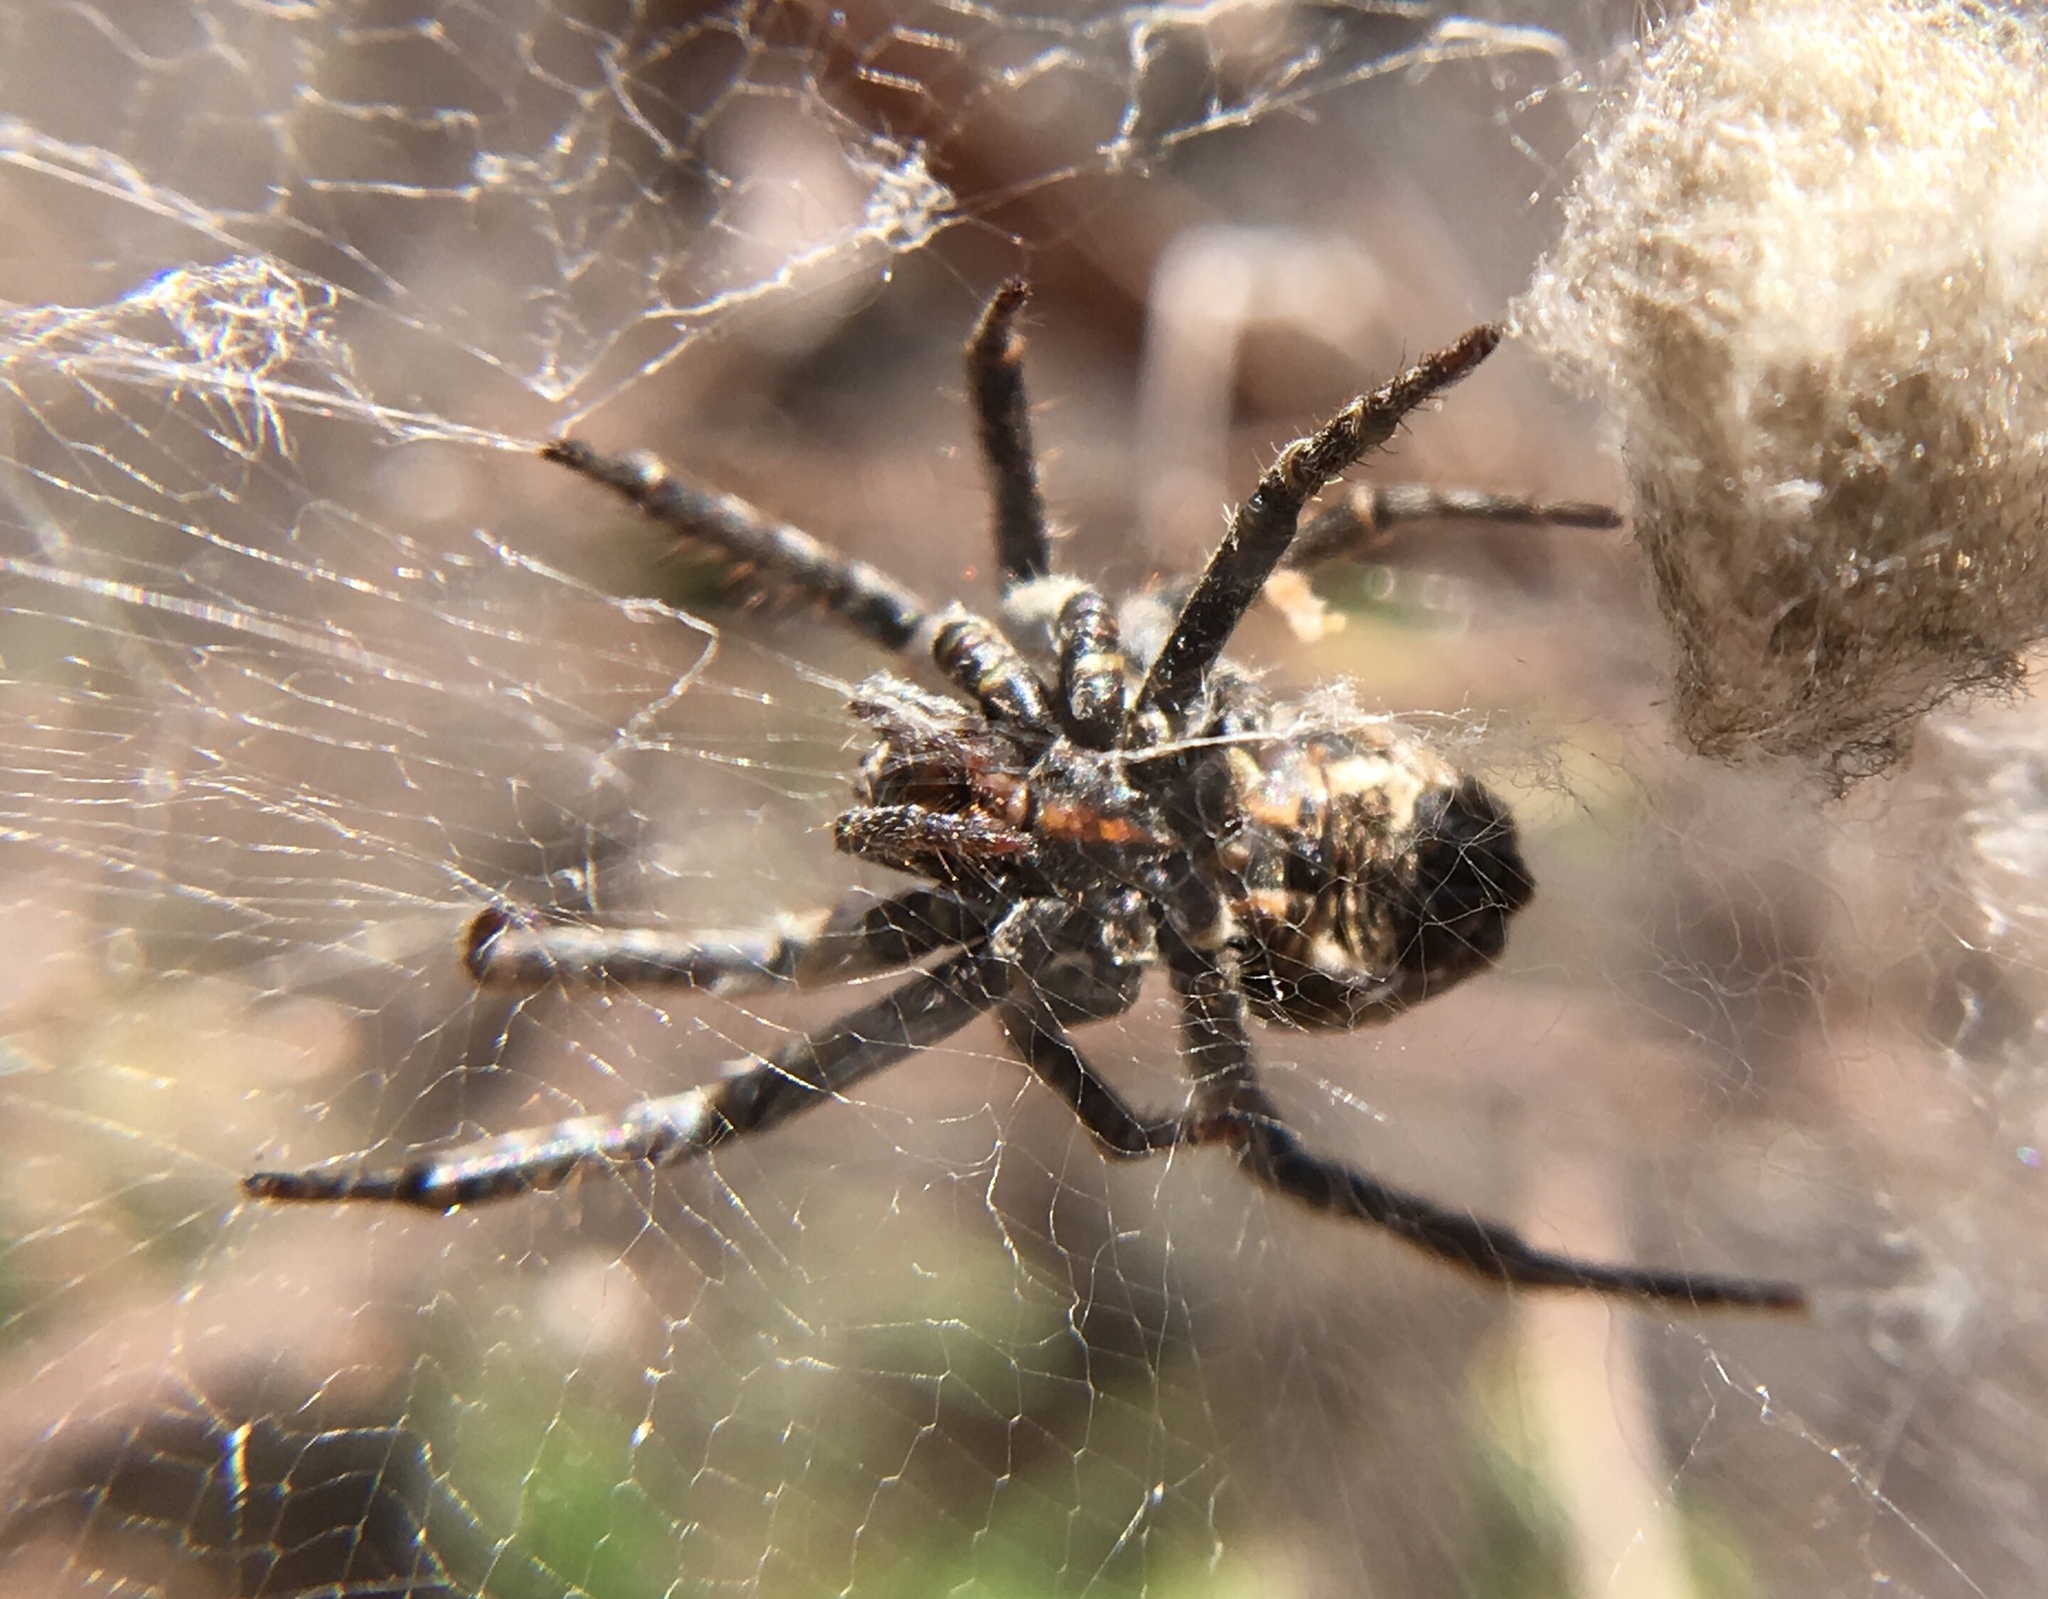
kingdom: Animalia
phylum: Arthropoda
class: Arachnida
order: Araneae
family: Araneidae
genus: Cyrtophora
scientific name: Cyrtophora citricola
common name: Orb weavers
